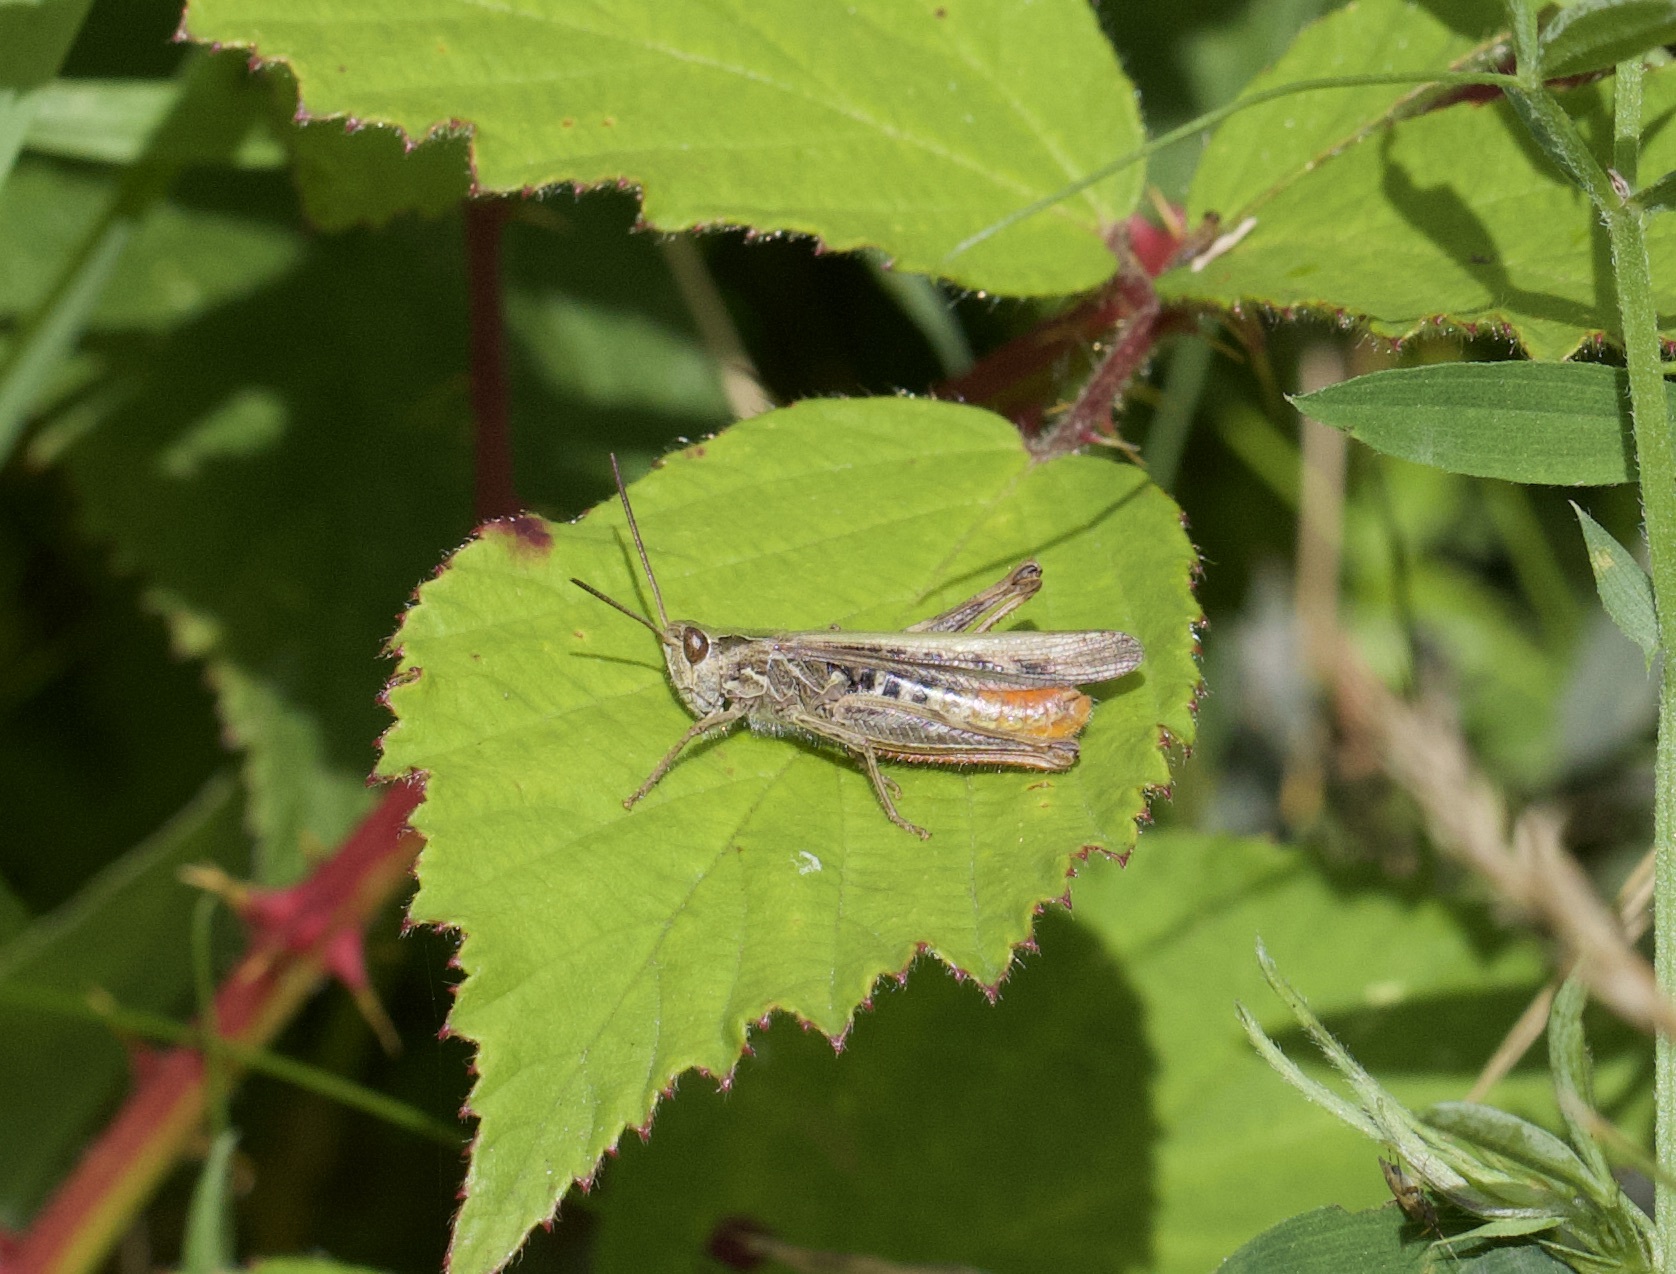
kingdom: Animalia
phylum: Arthropoda
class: Insecta
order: Orthoptera
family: Acrididae
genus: Chorthippus
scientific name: Chorthippus brunneus
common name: Field grasshopper
